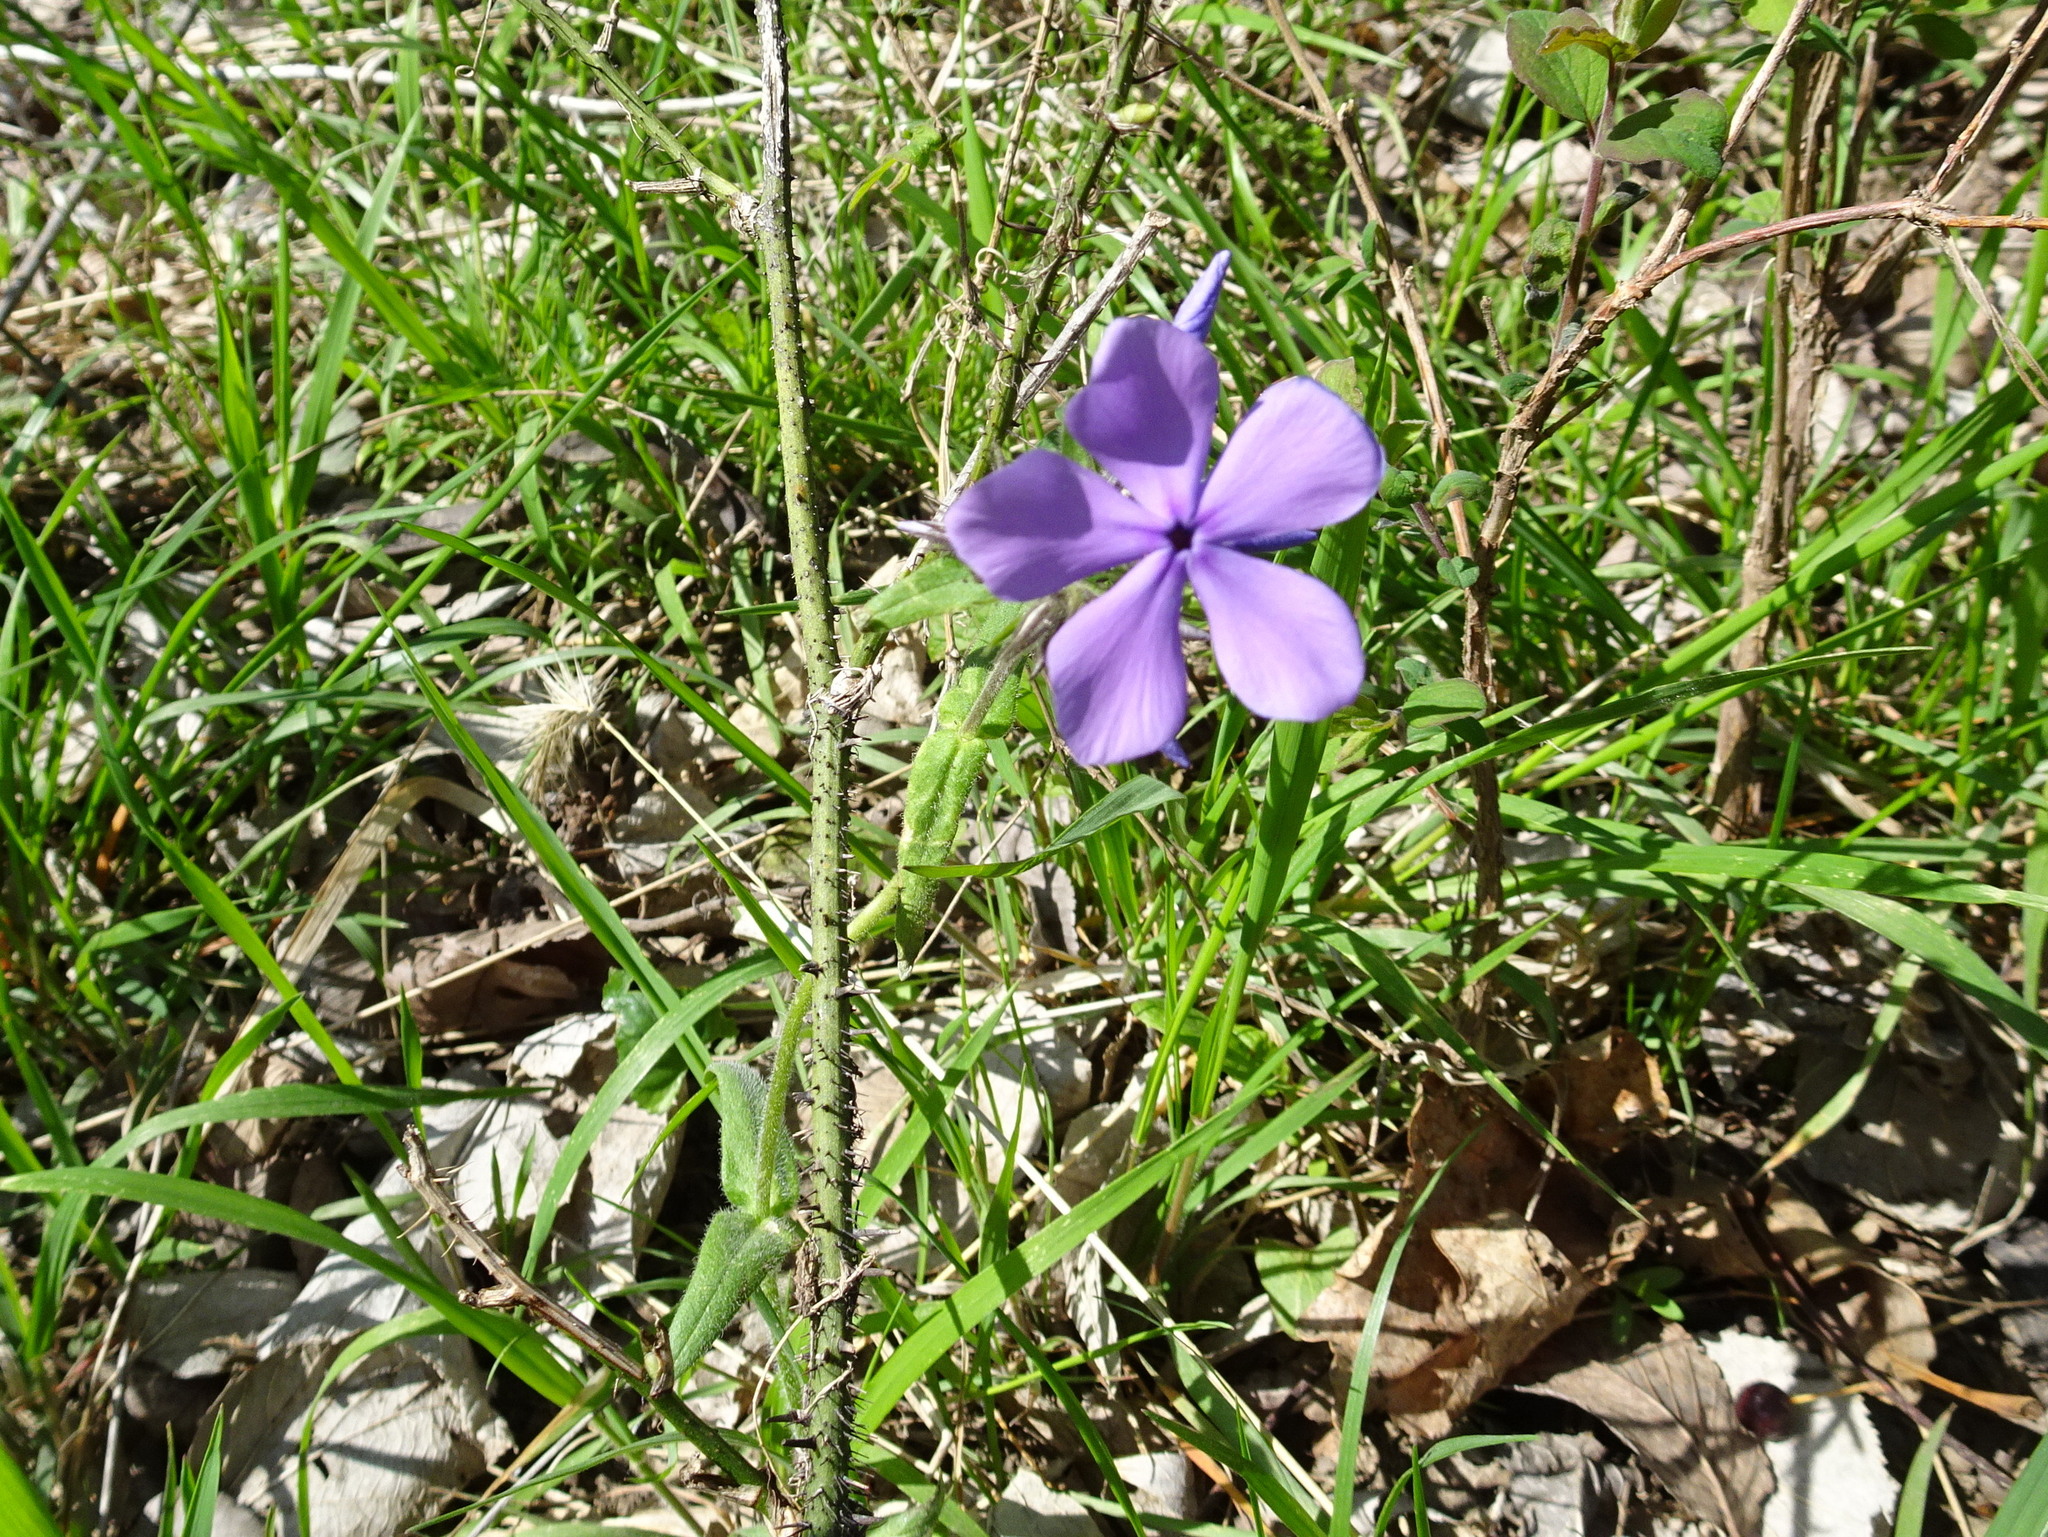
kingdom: Plantae
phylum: Tracheophyta
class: Magnoliopsida
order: Ericales
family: Polemoniaceae
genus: Phlox
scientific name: Phlox divaricata
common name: Blue phlox
